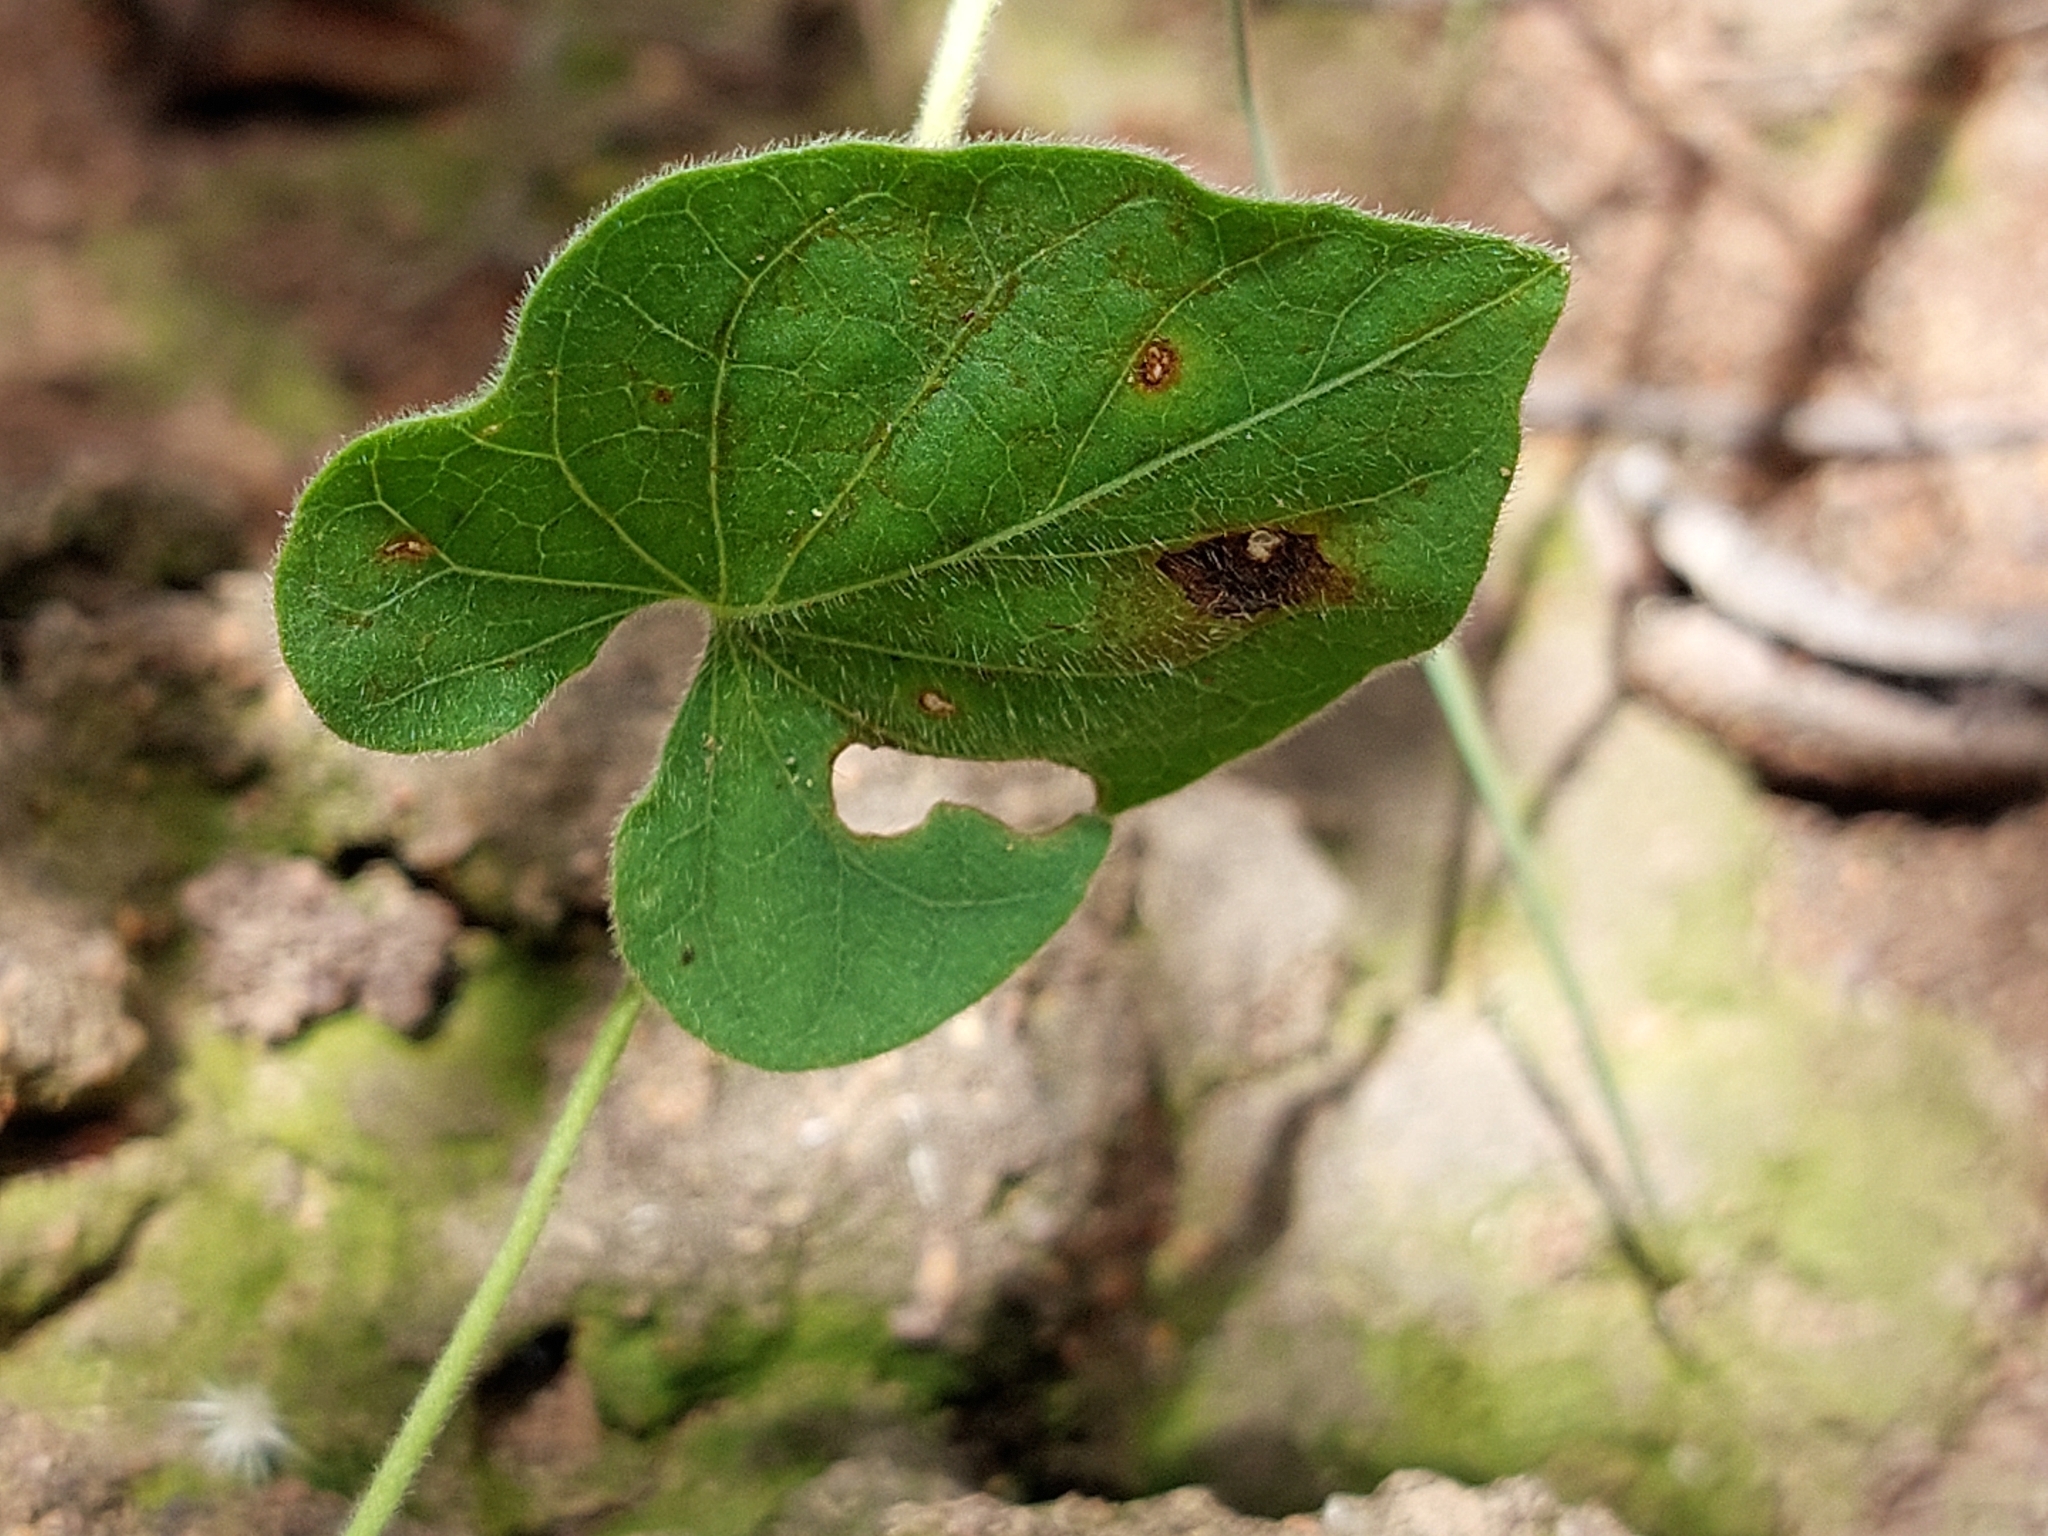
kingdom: Plantae
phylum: Tracheophyta
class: Magnoliopsida
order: Solanales
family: Convolvulaceae
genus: Ipomoea
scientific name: Ipomoea obscura
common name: Obscure morning-glory
